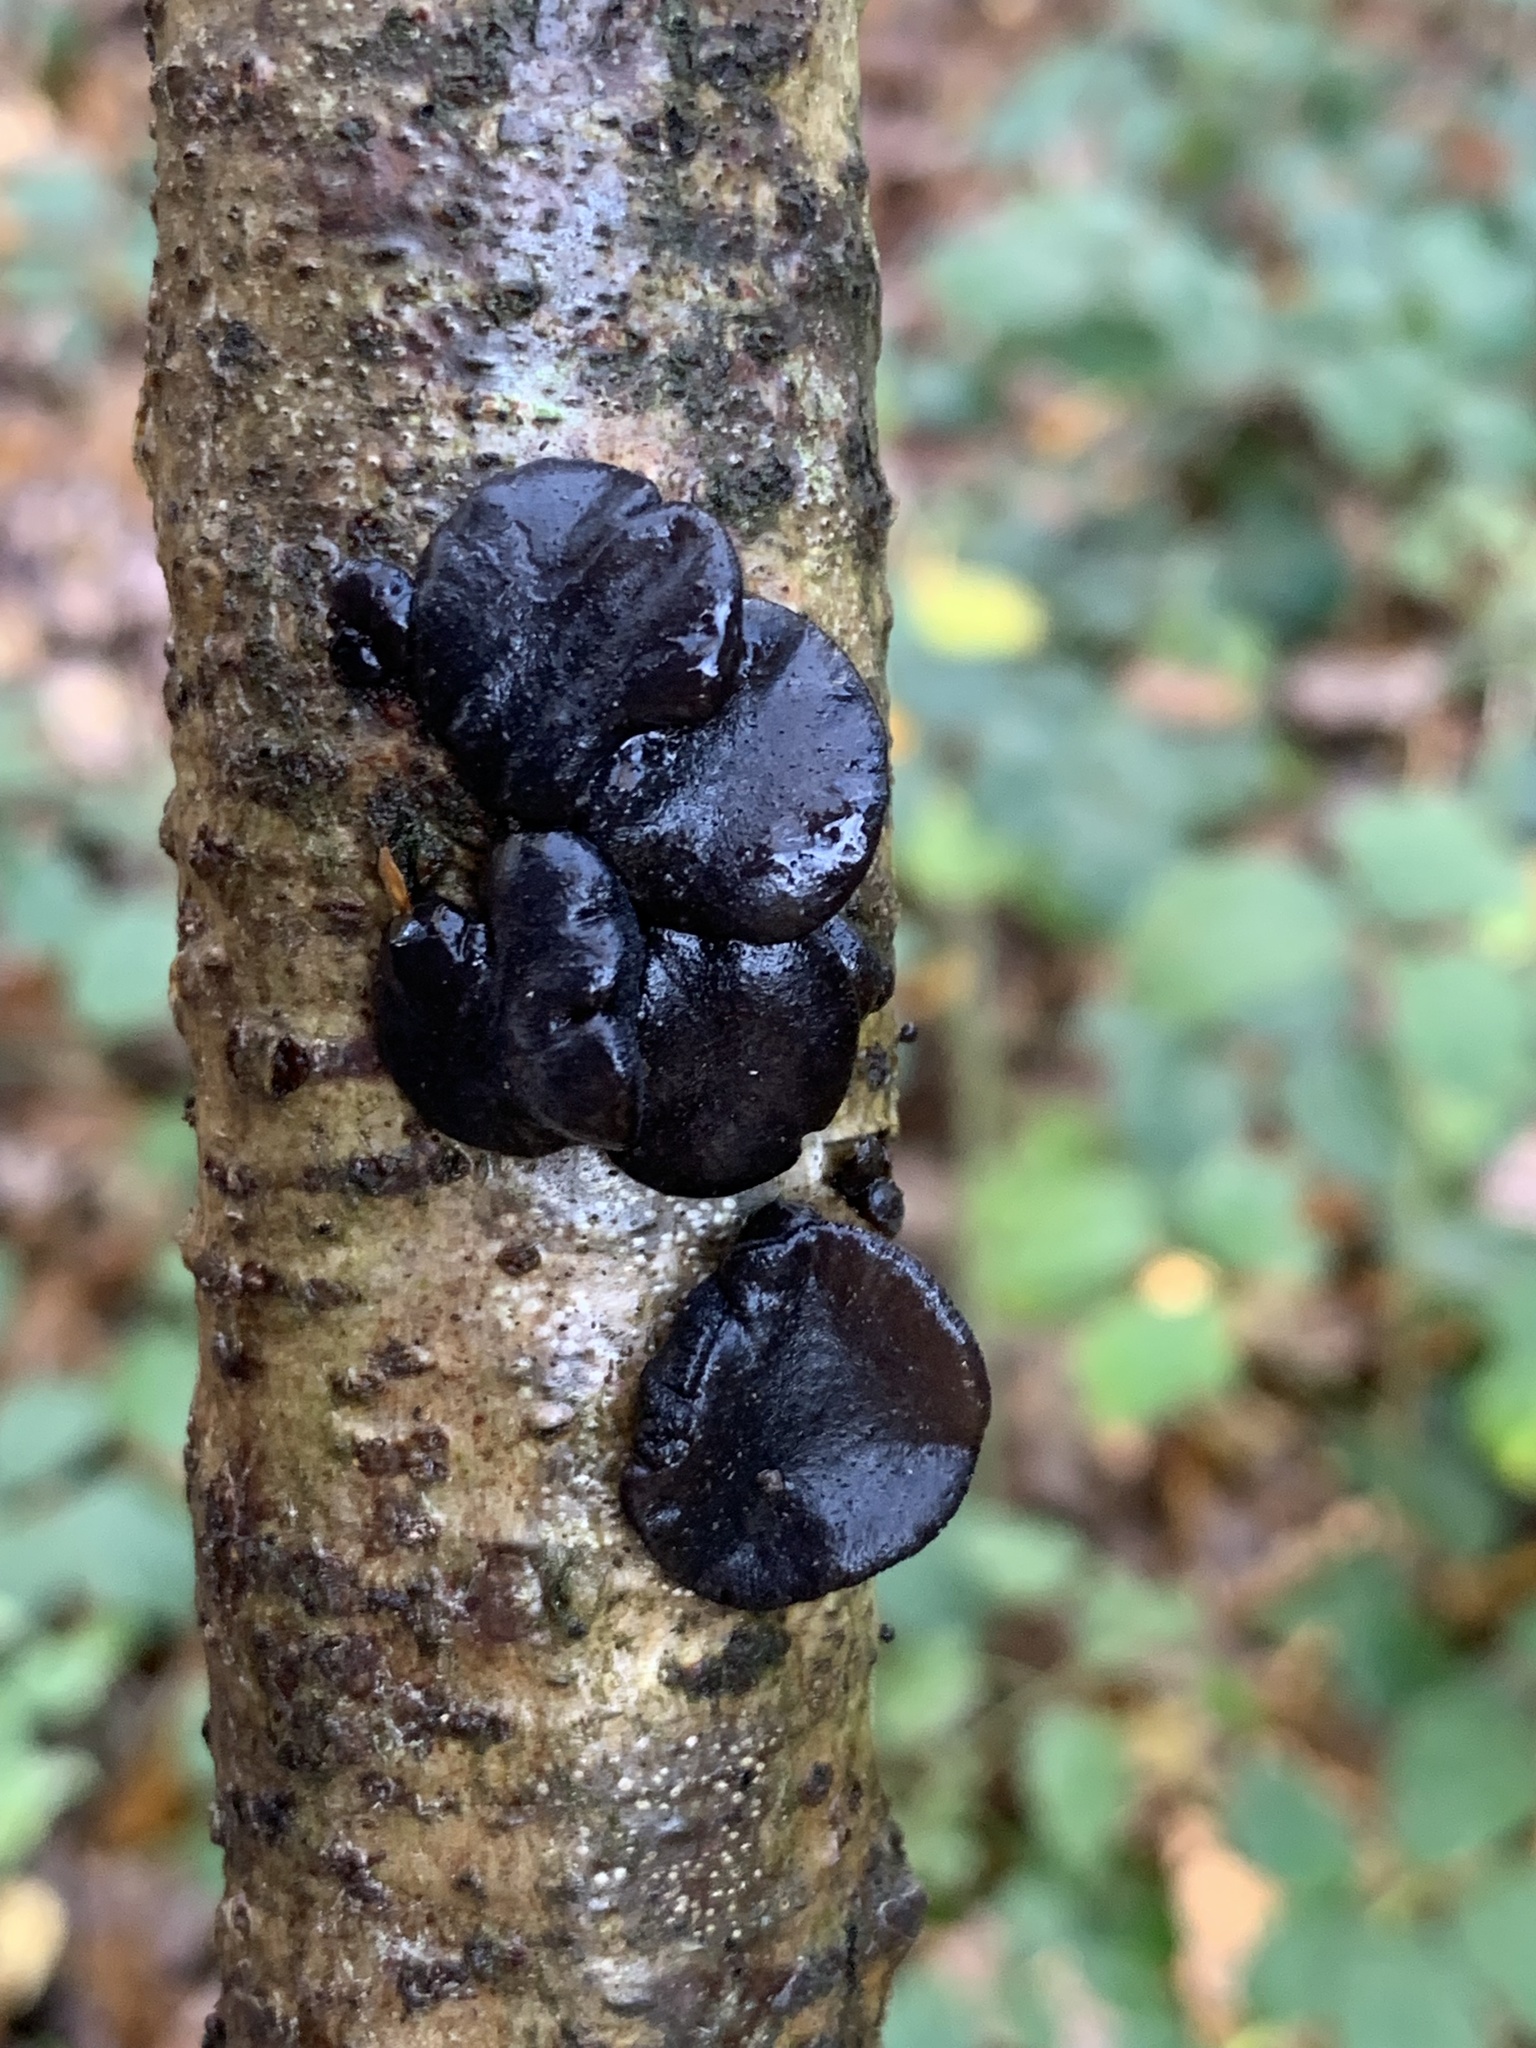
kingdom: Fungi
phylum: Basidiomycota
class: Agaricomycetes
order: Auriculariales
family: Auriculariaceae
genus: Exidia
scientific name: Exidia glandulosa
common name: Witches' butter
